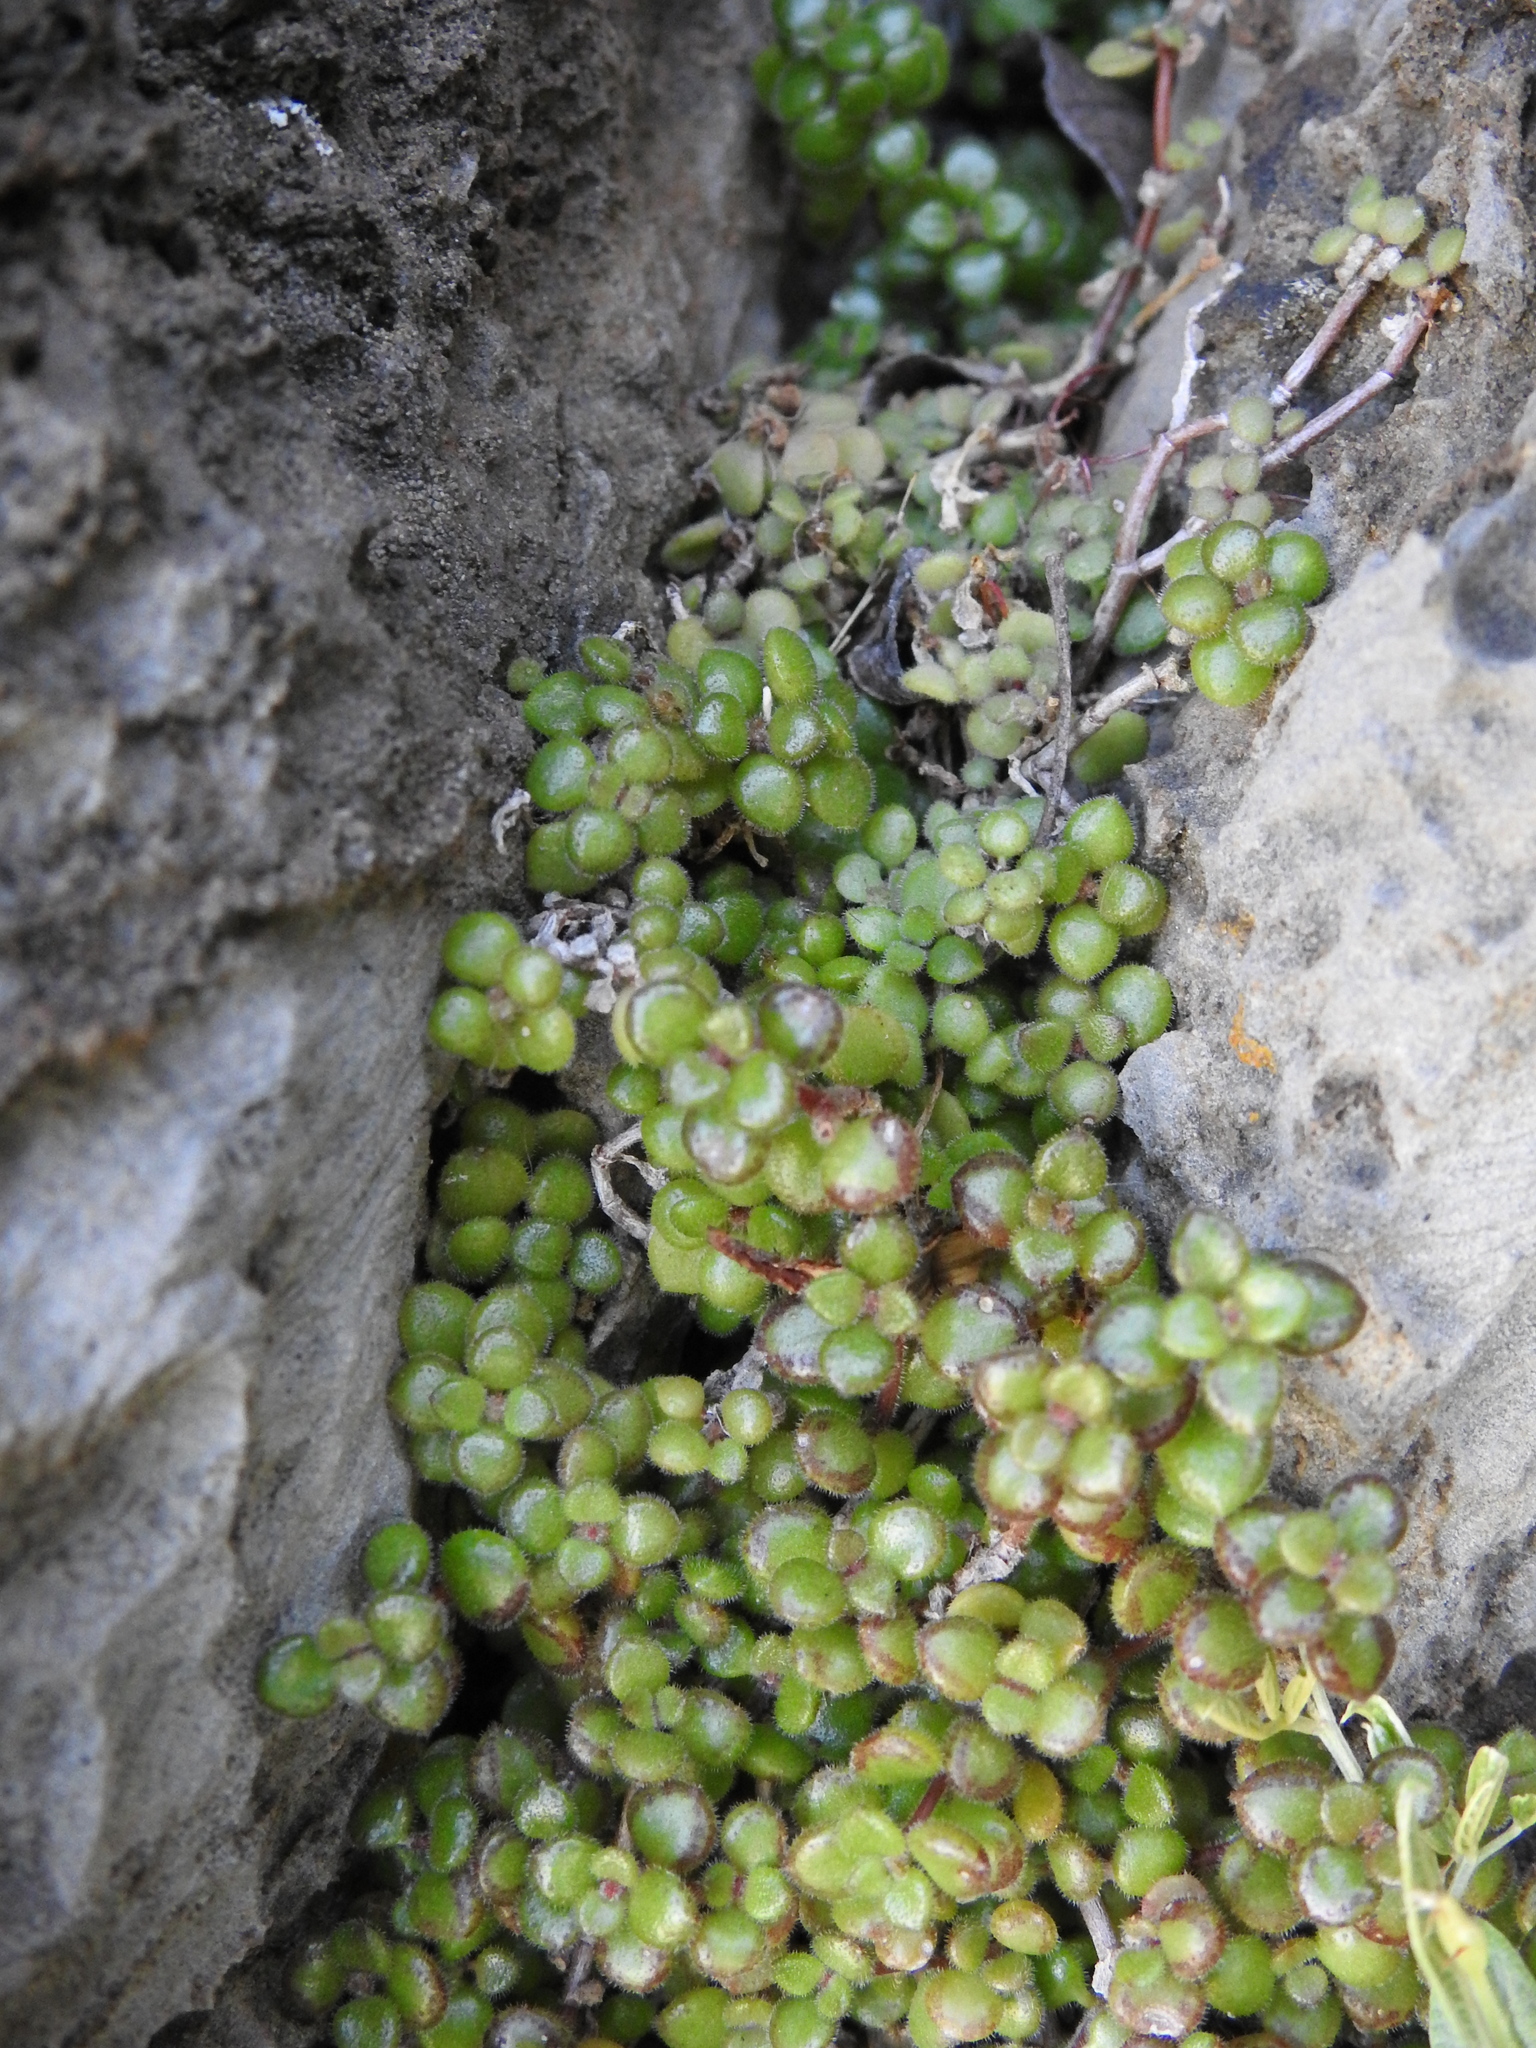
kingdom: Plantae
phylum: Tracheophyta
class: Magnoliopsida
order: Saxifragales
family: Crassulaceae
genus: Crassula
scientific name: Crassula expansa
